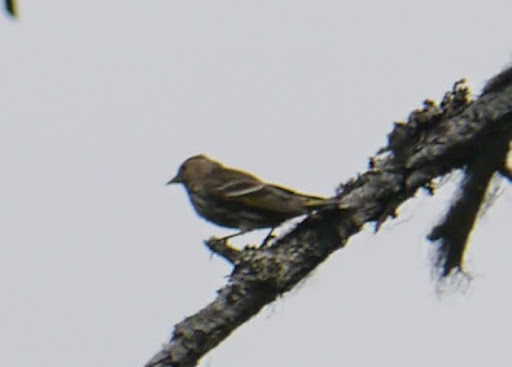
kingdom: Animalia
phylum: Chordata
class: Aves
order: Passeriformes
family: Fringillidae
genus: Spinus
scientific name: Spinus pinus
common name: Pine siskin
